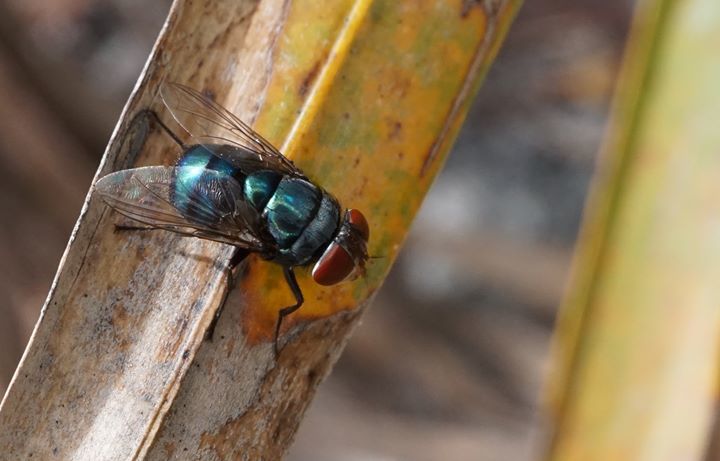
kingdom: Animalia
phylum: Arthropoda
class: Insecta
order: Diptera
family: Calliphoridae
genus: Chrysomya
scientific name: Chrysomya megacephala
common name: Blow fly
